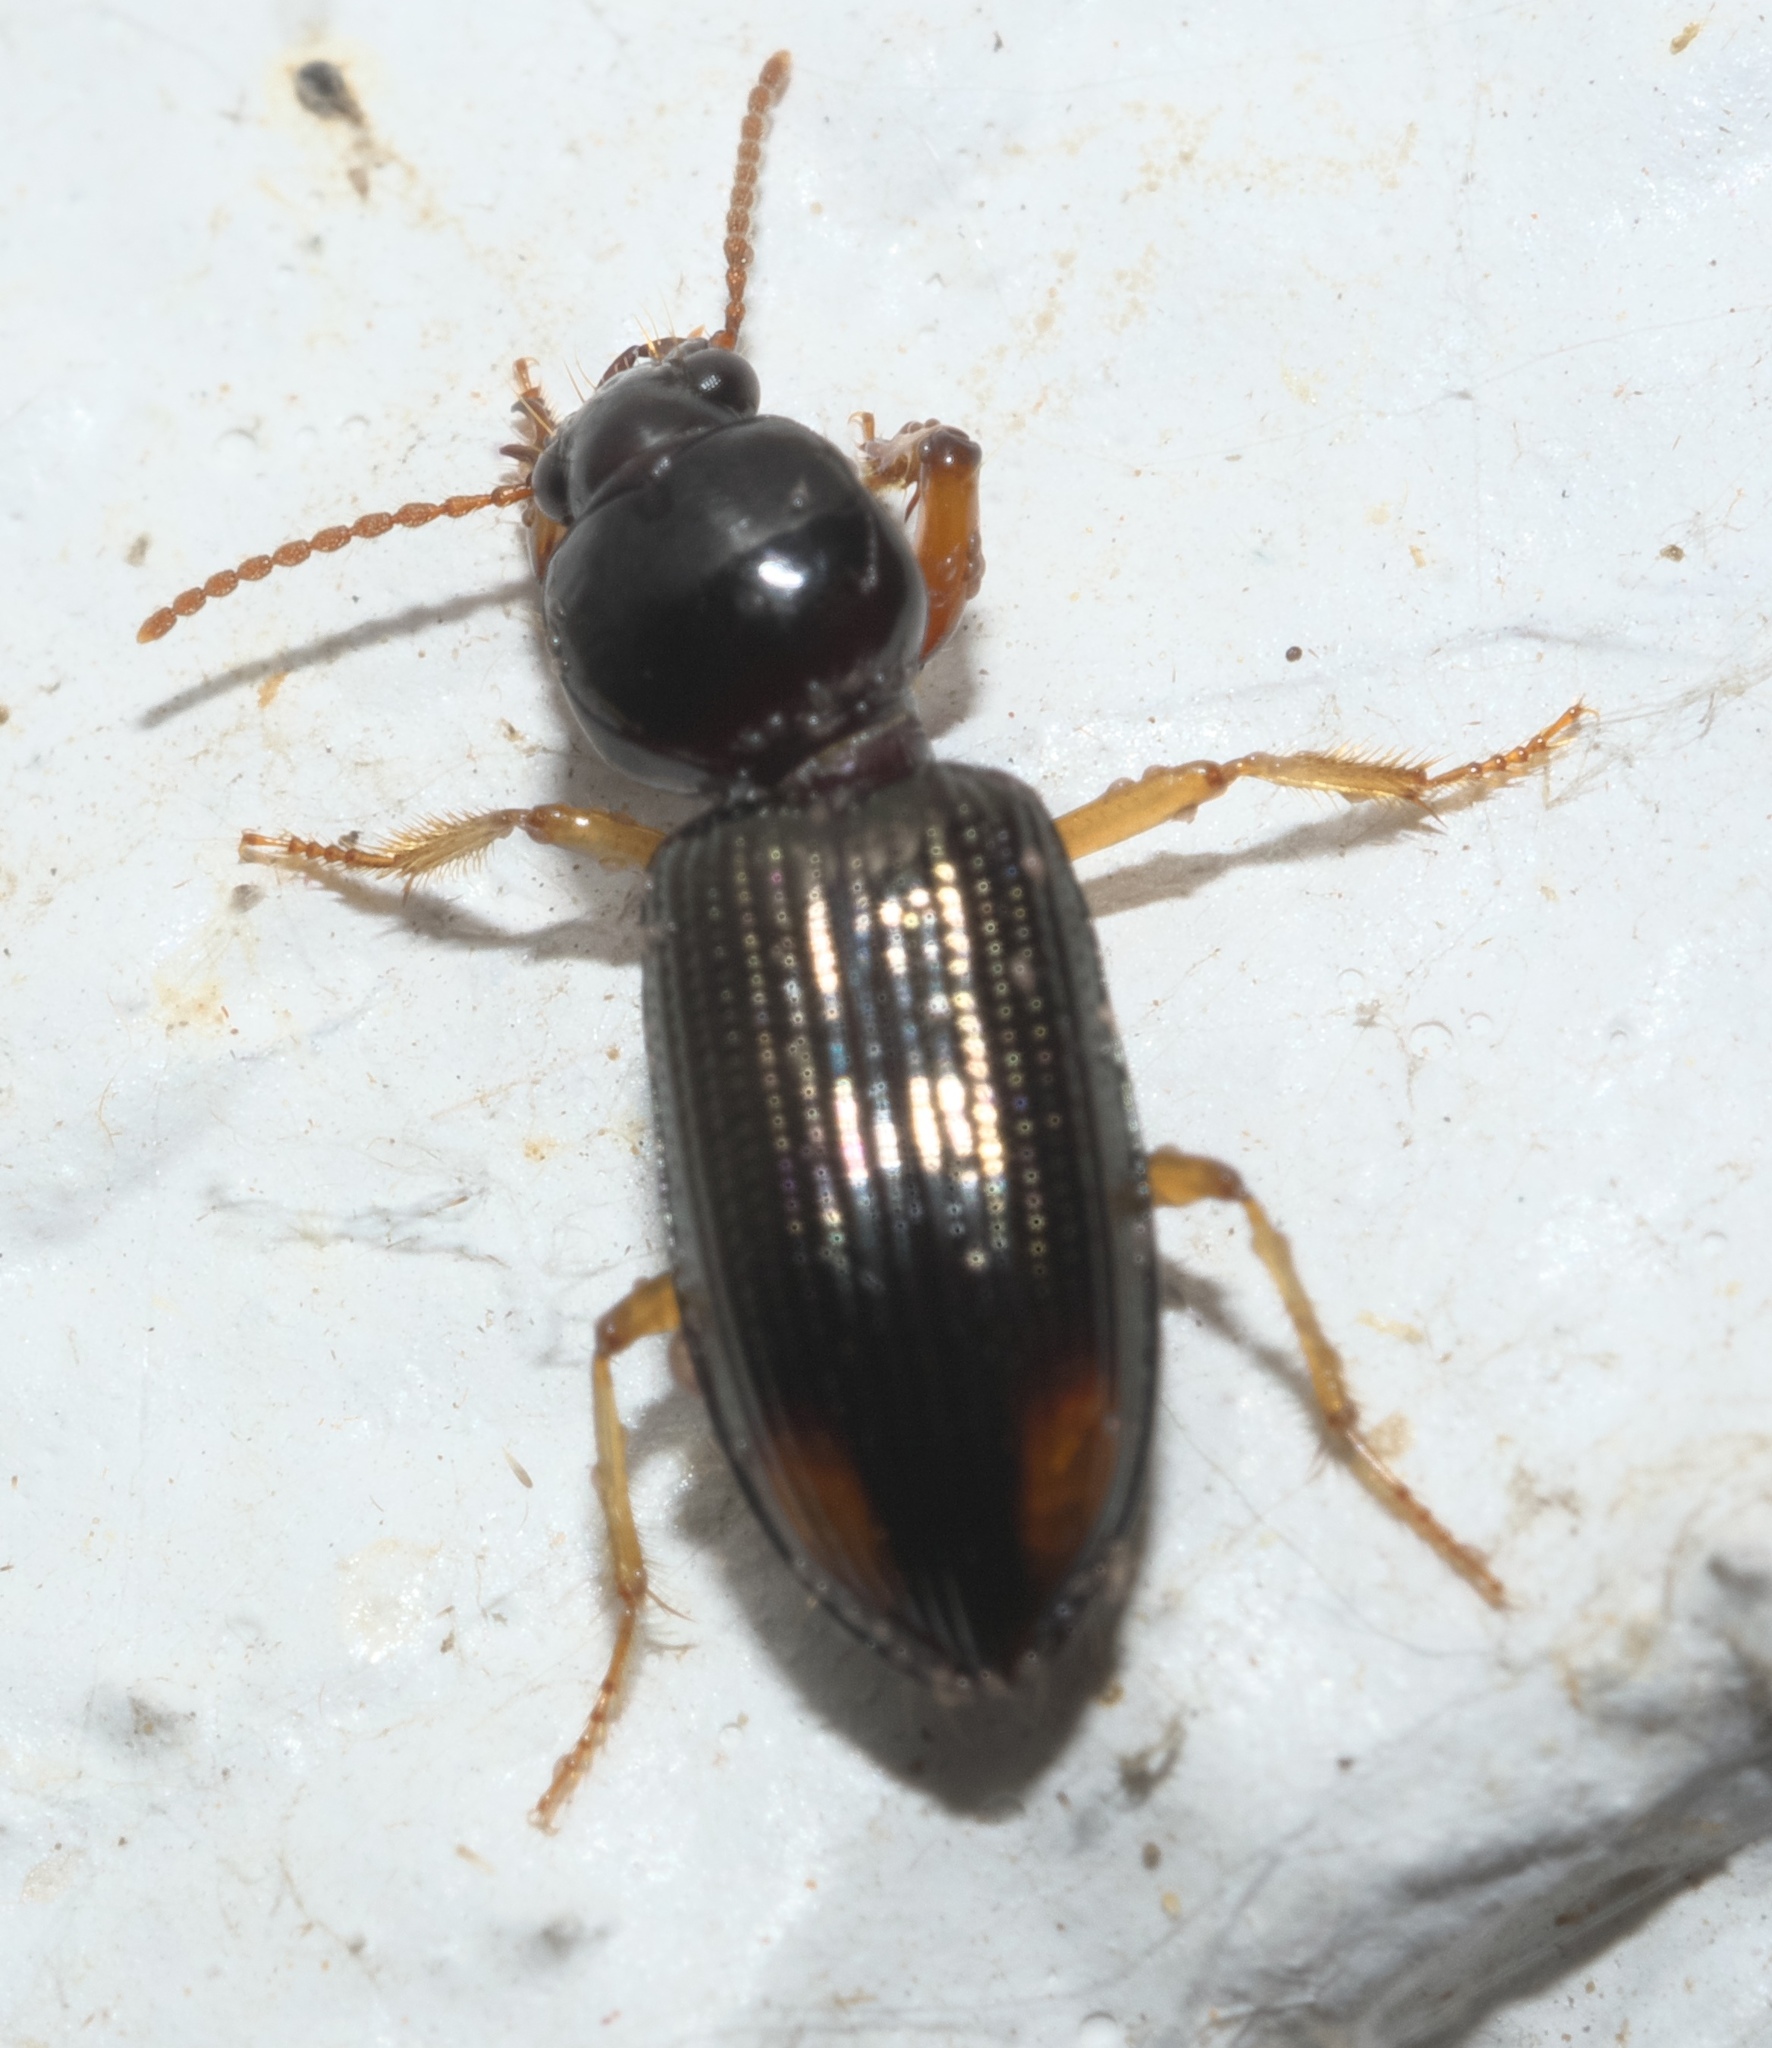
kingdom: Animalia
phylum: Arthropoda
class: Insecta
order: Coleoptera
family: Carabidae
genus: Aspidoglossa
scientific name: Aspidoglossa subangulata
